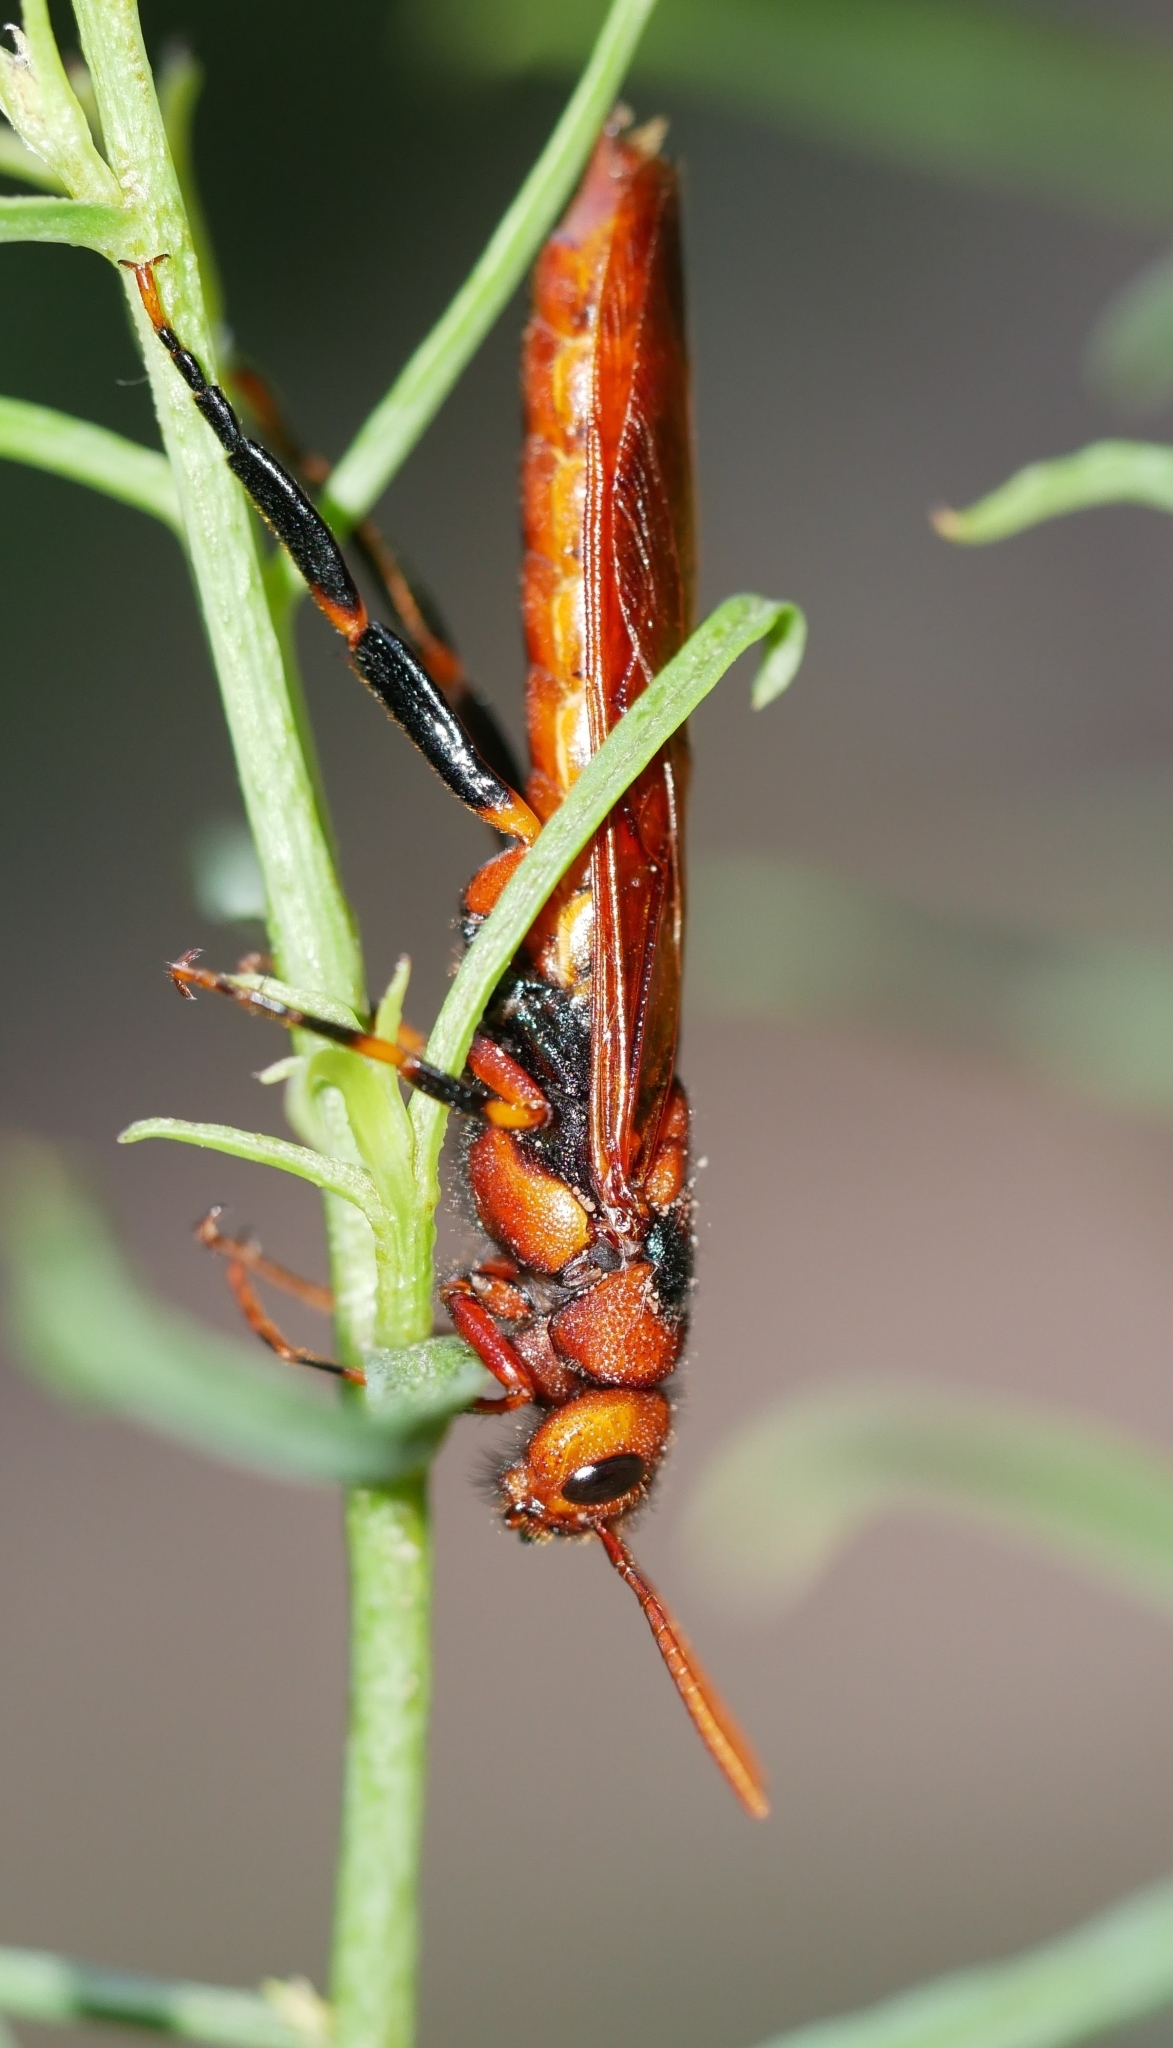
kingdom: Animalia
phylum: Arthropoda
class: Insecta
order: Hymenoptera
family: Siricidae
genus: Tremex
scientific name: Tremex columba
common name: Wasp
